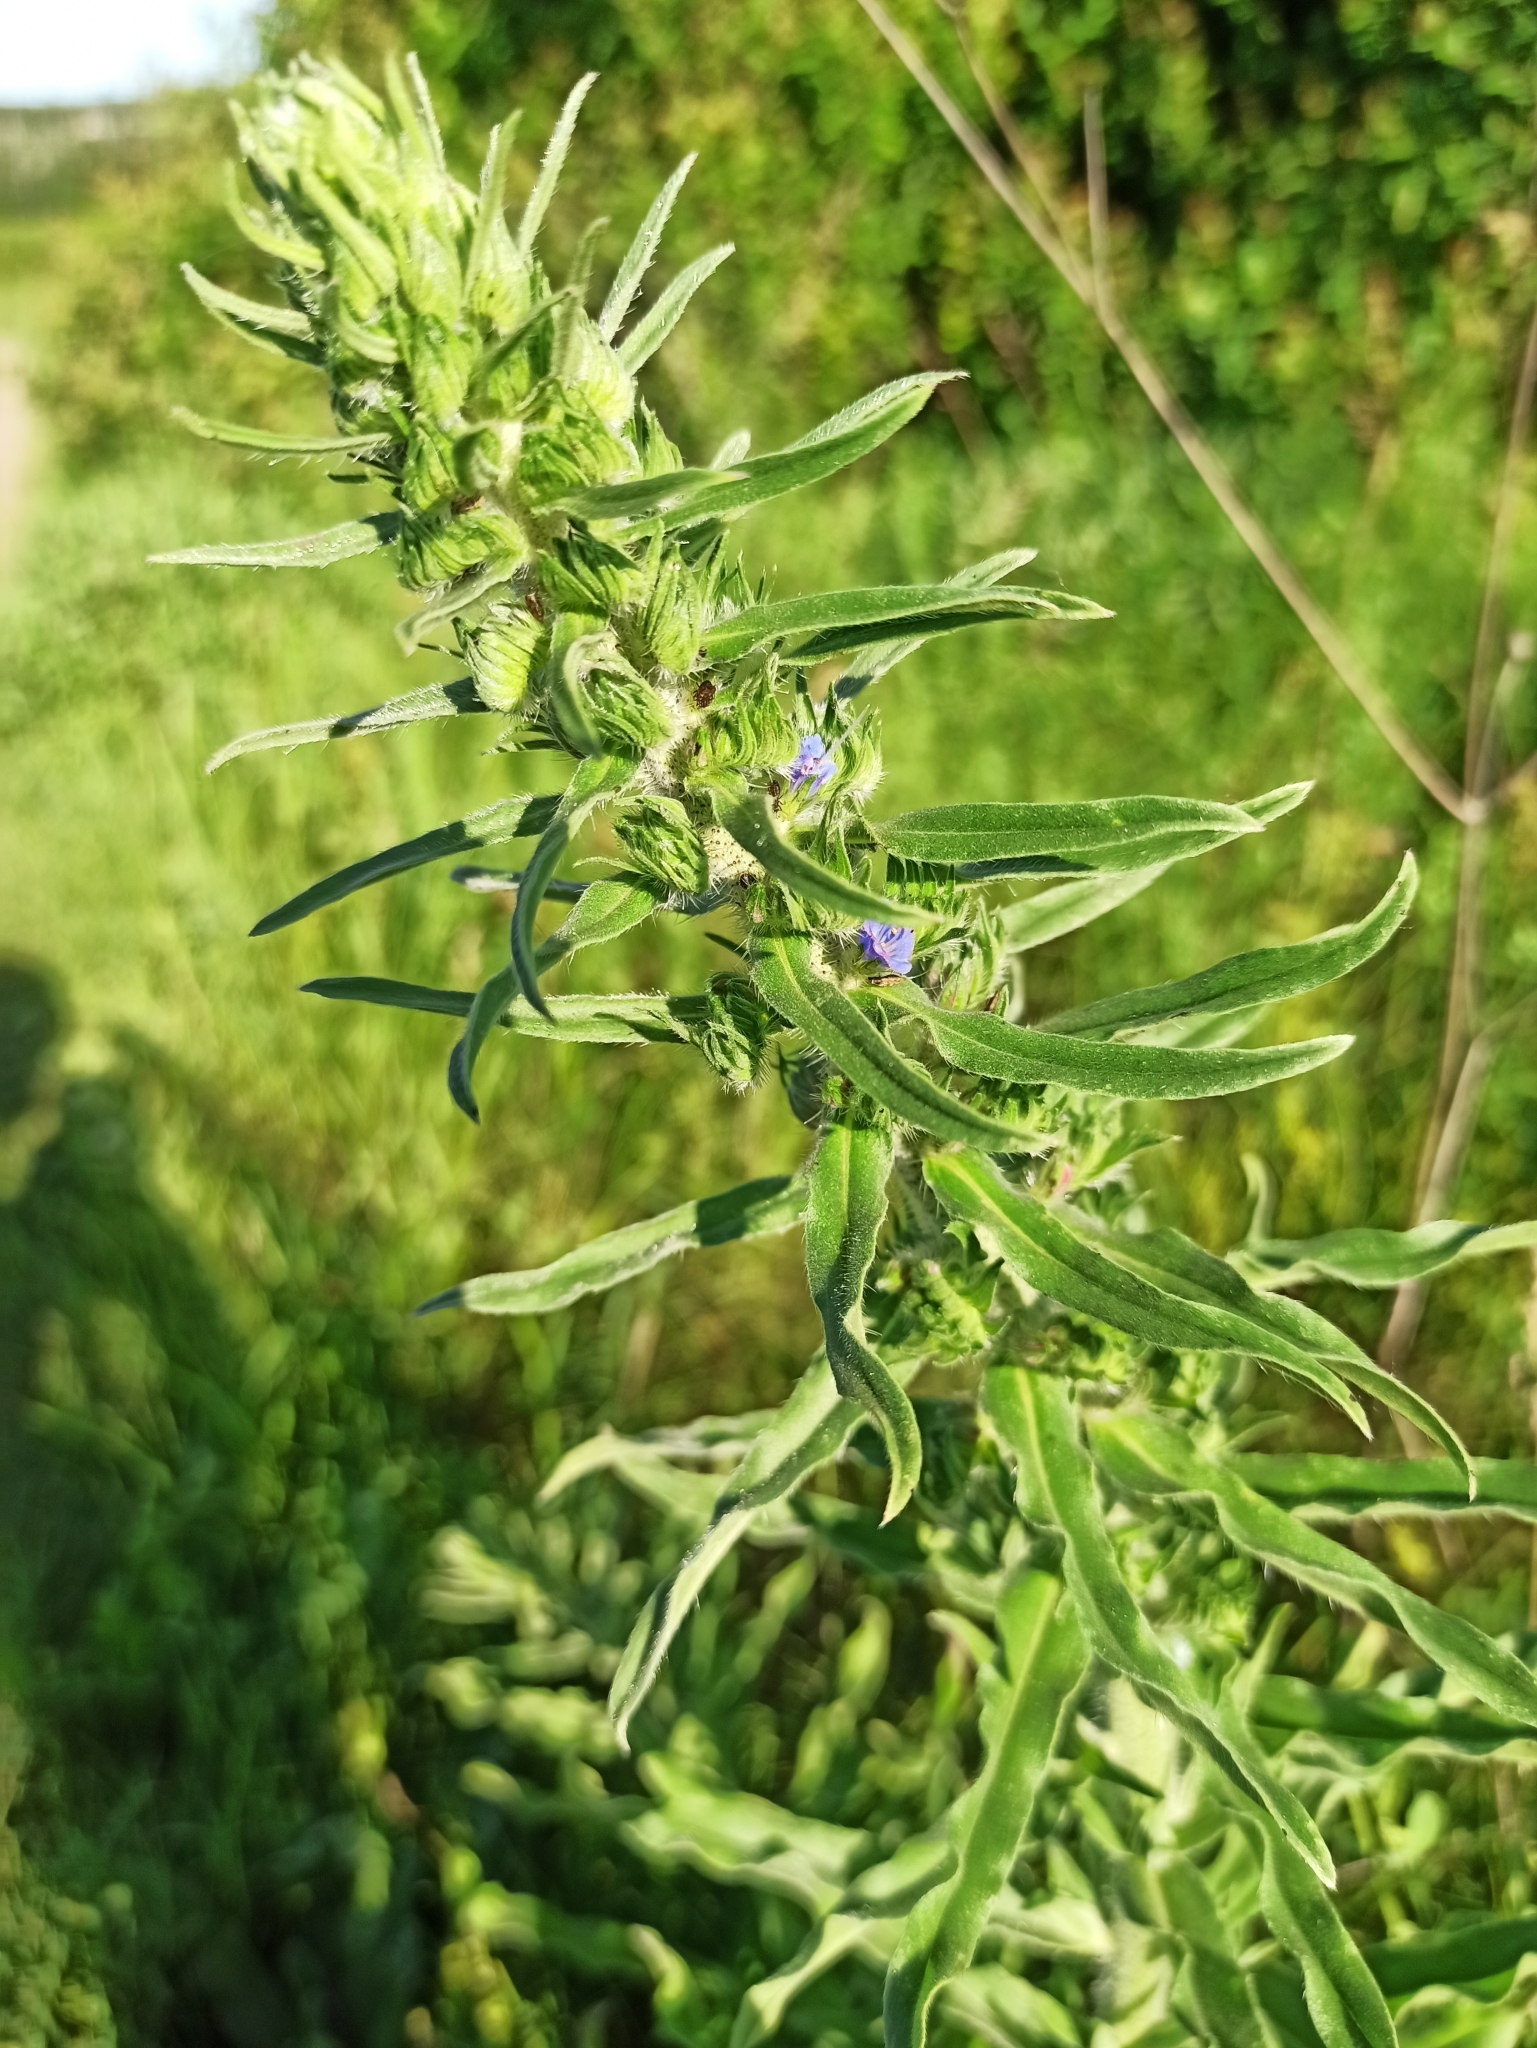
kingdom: Plantae
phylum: Tracheophyta
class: Magnoliopsida
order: Boraginales
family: Boraginaceae
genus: Echium
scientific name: Echium vulgare
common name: Common viper's bugloss
